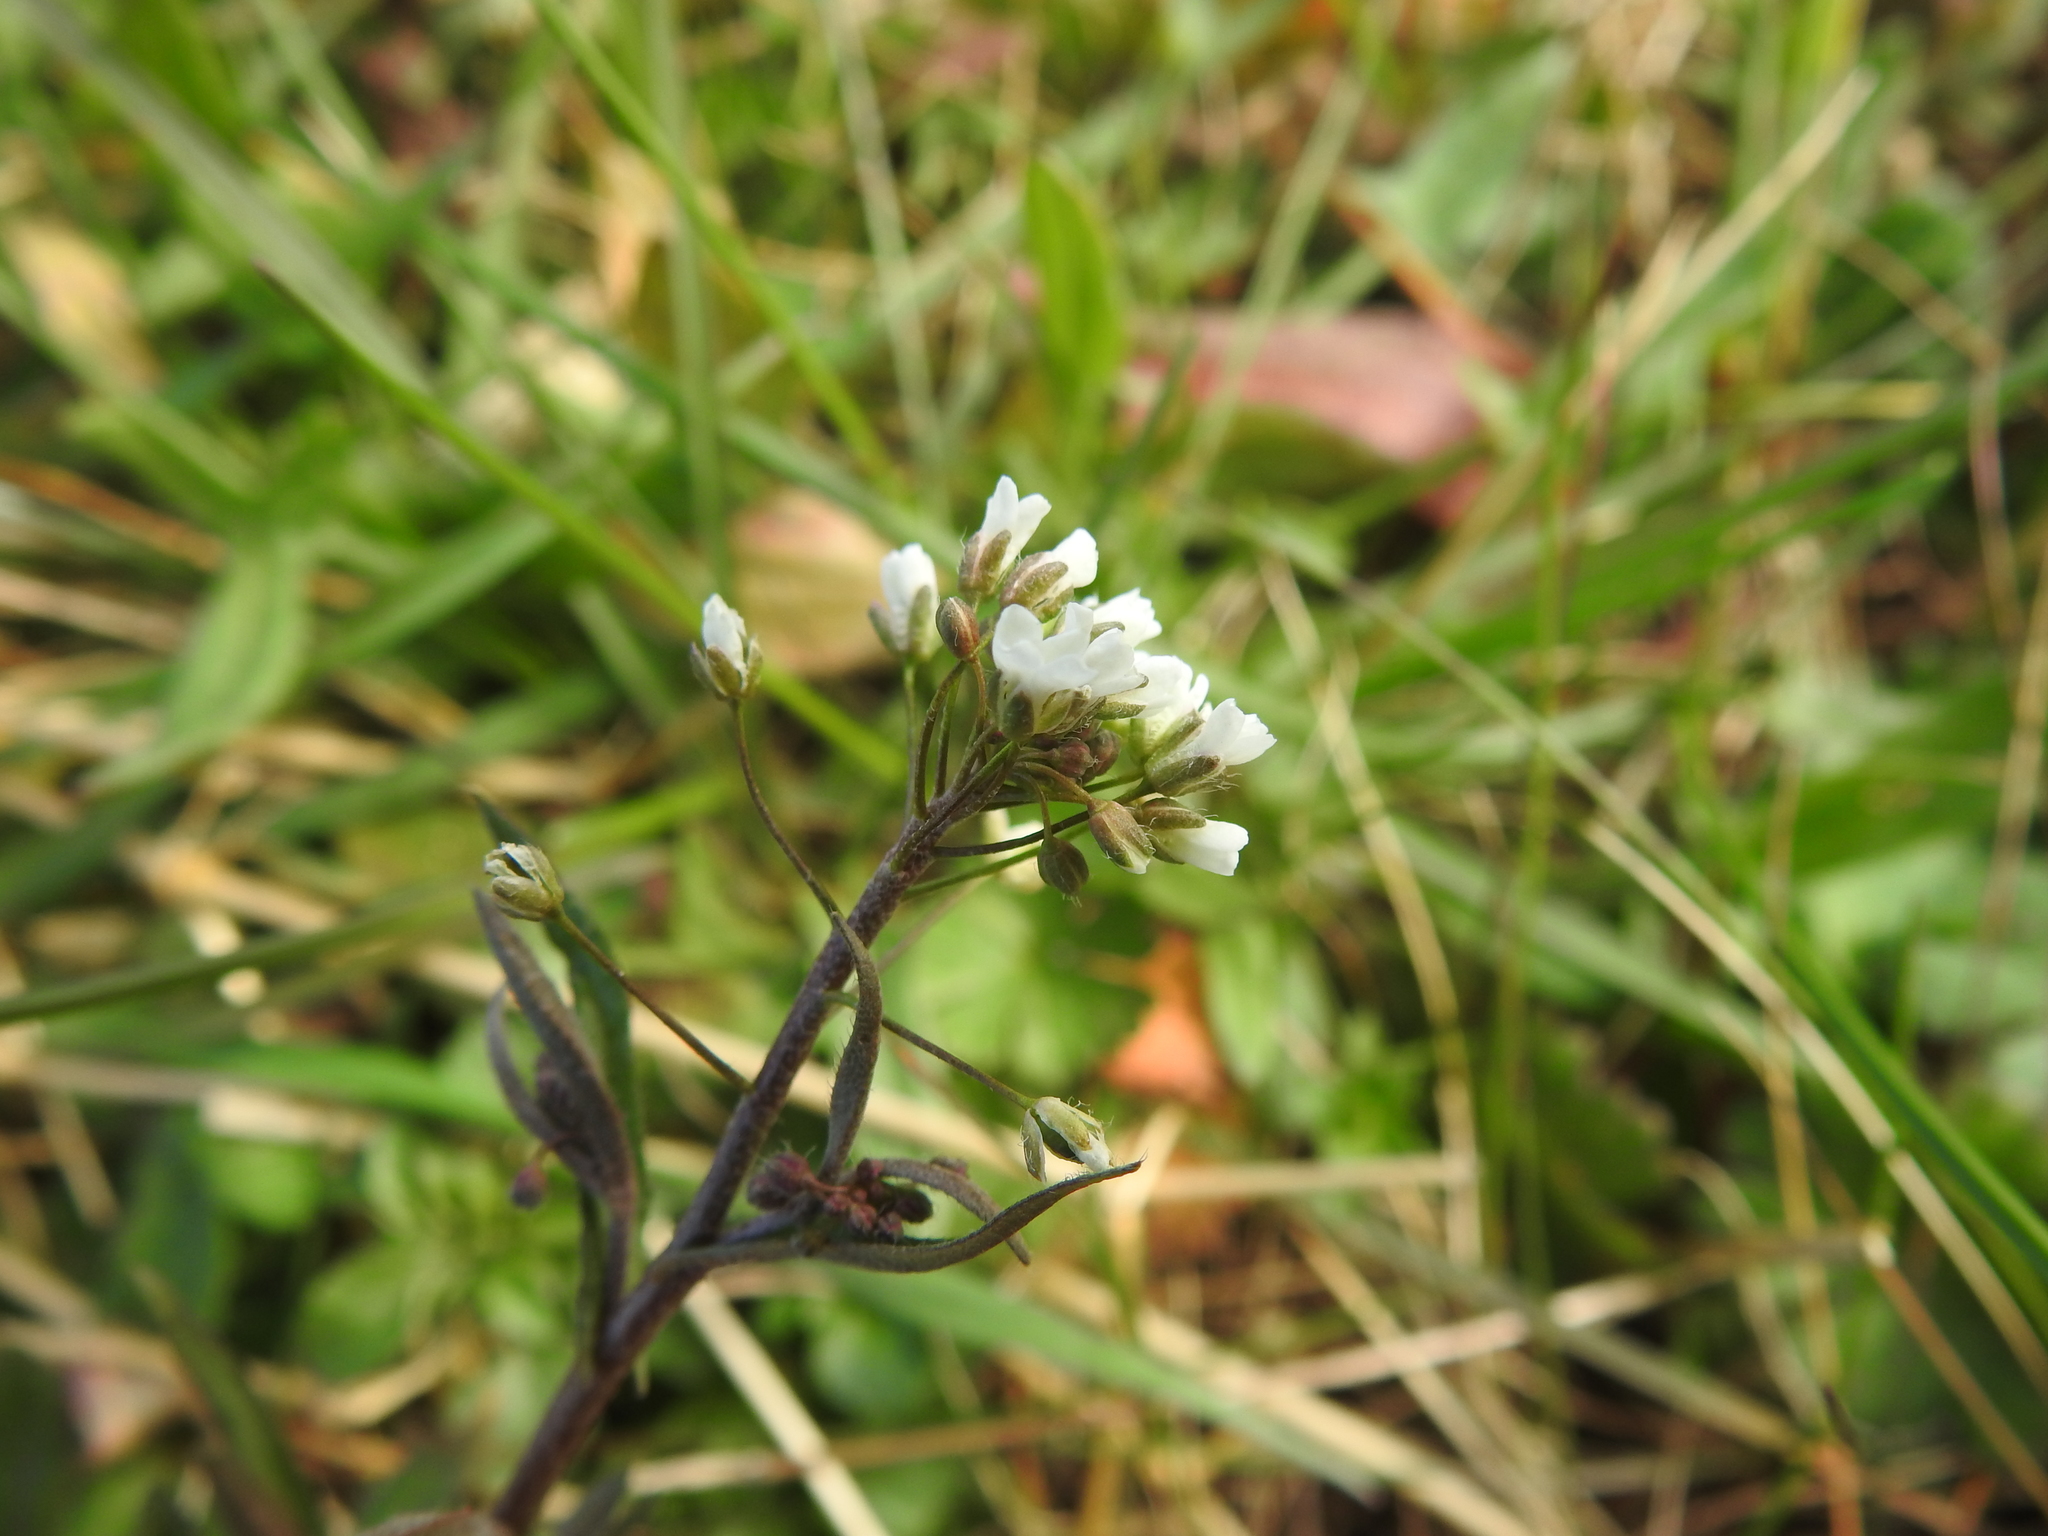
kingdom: Plantae
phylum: Tracheophyta
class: Magnoliopsida
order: Brassicales
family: Brassicaceae
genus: Capsella
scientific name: Capsella bursa-pastoris
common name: Shepherd's purse
